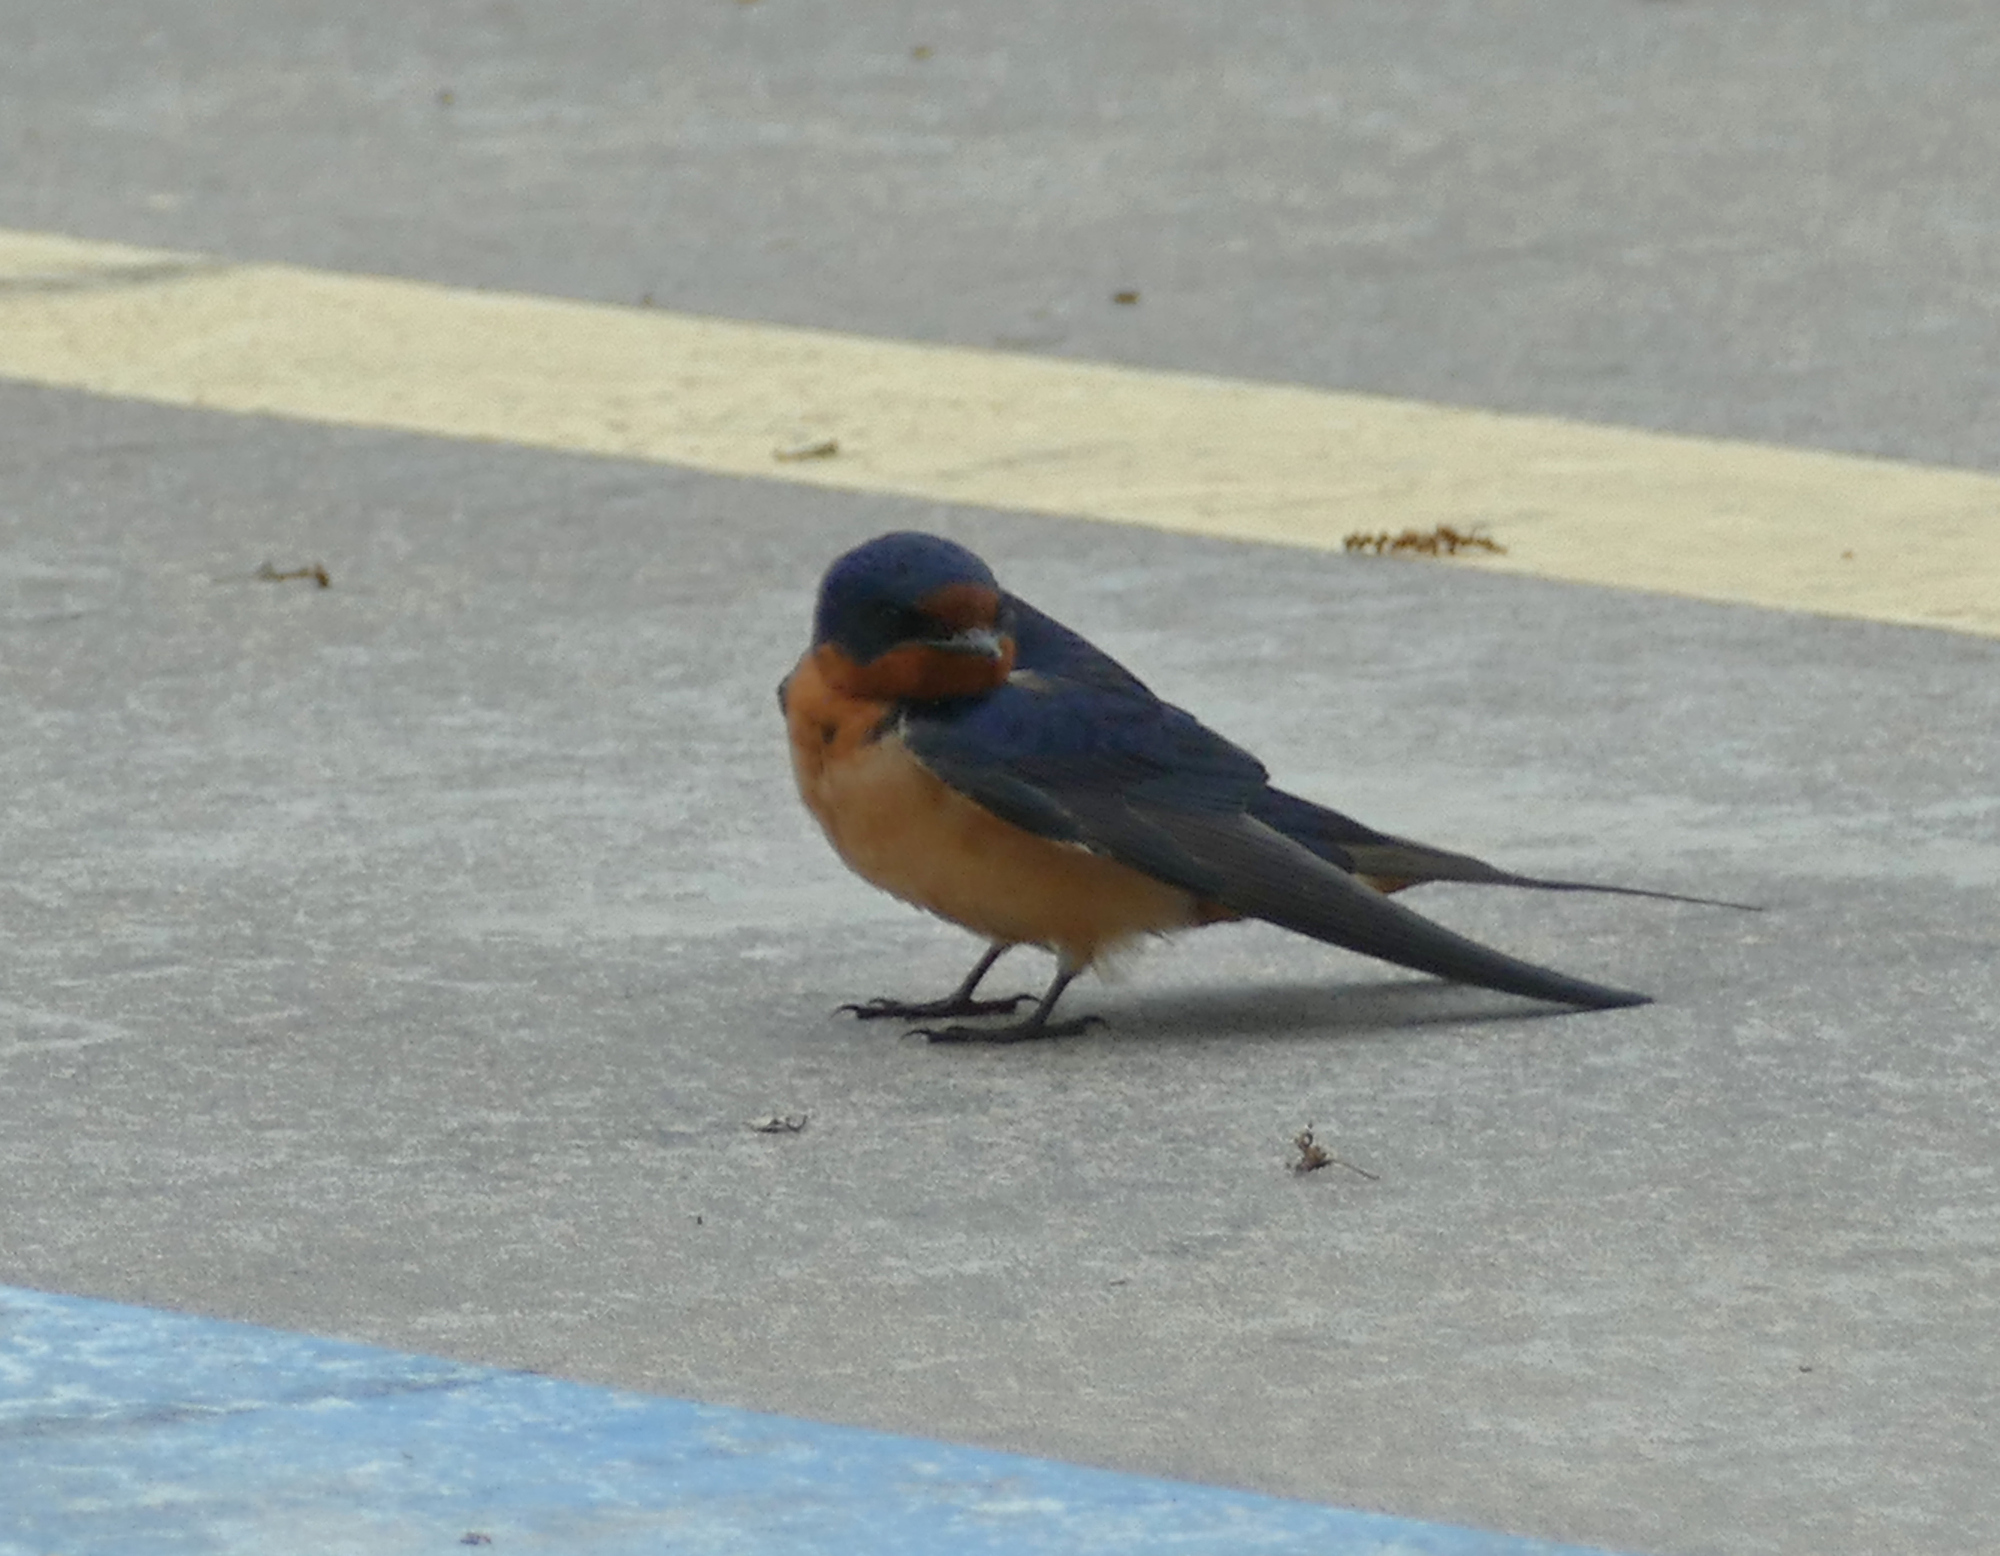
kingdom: Animalia
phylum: Chordata
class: Aves
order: Passeriformes
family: Hirundinidae
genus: Hirundo
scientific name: Hirundo rustica
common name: Barn swallow
